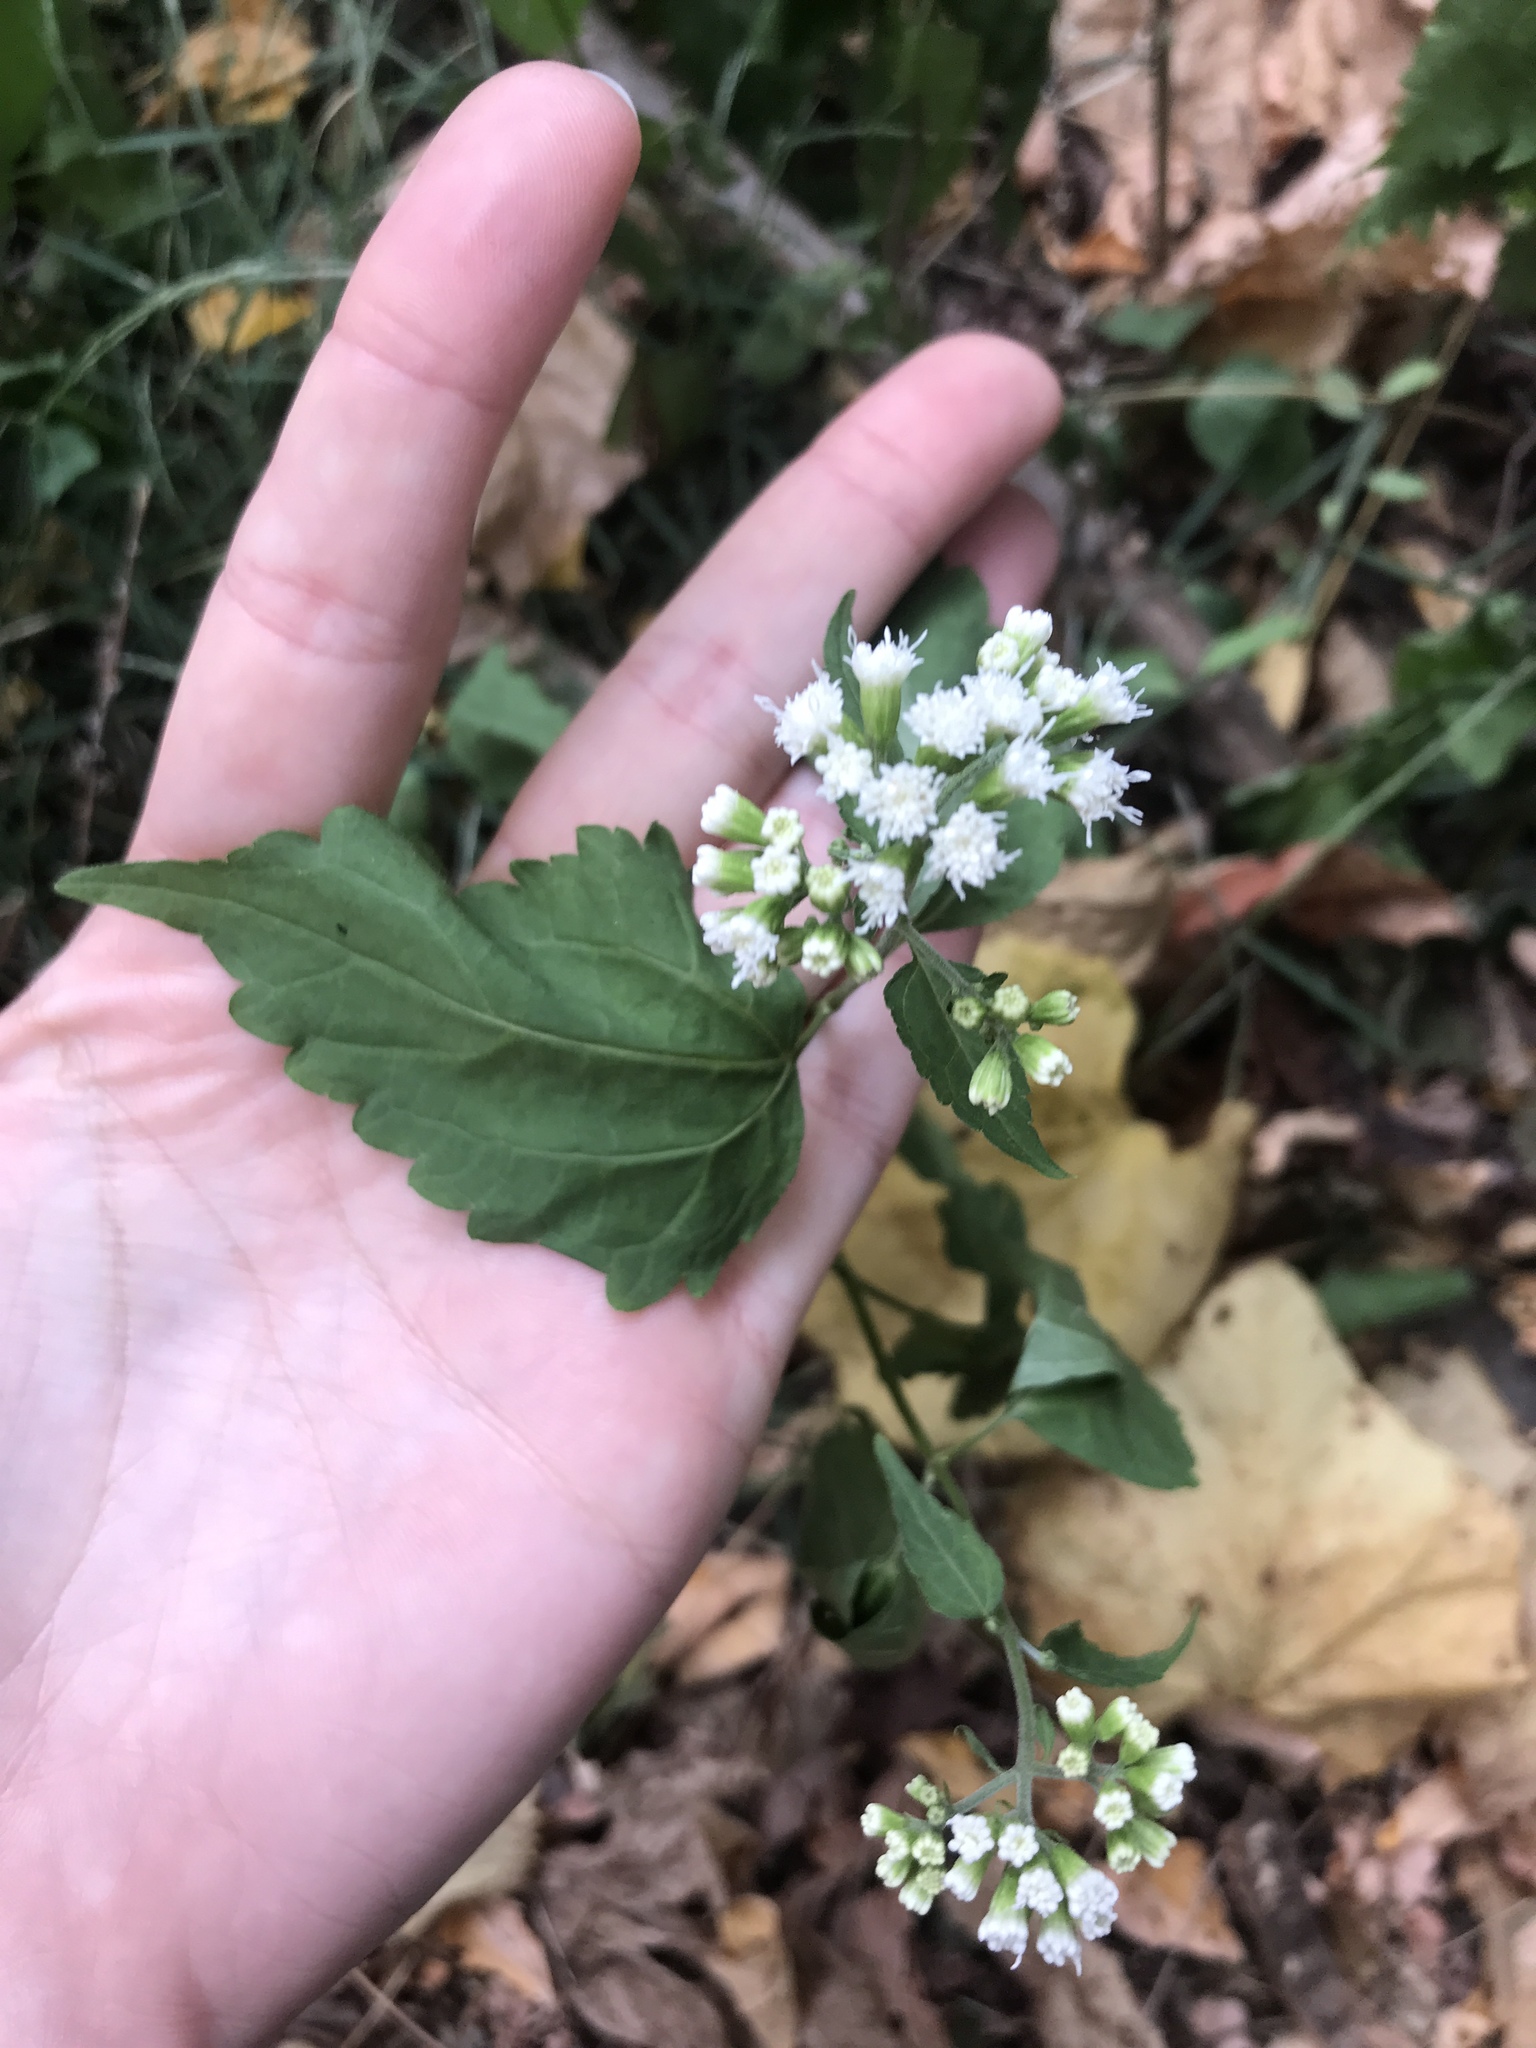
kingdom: Plantae
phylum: Tracheophyta
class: Magnoliopsida
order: Asterales
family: Asteraceae
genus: Ageratina
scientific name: Ageratina altissima
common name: White snakeroot
